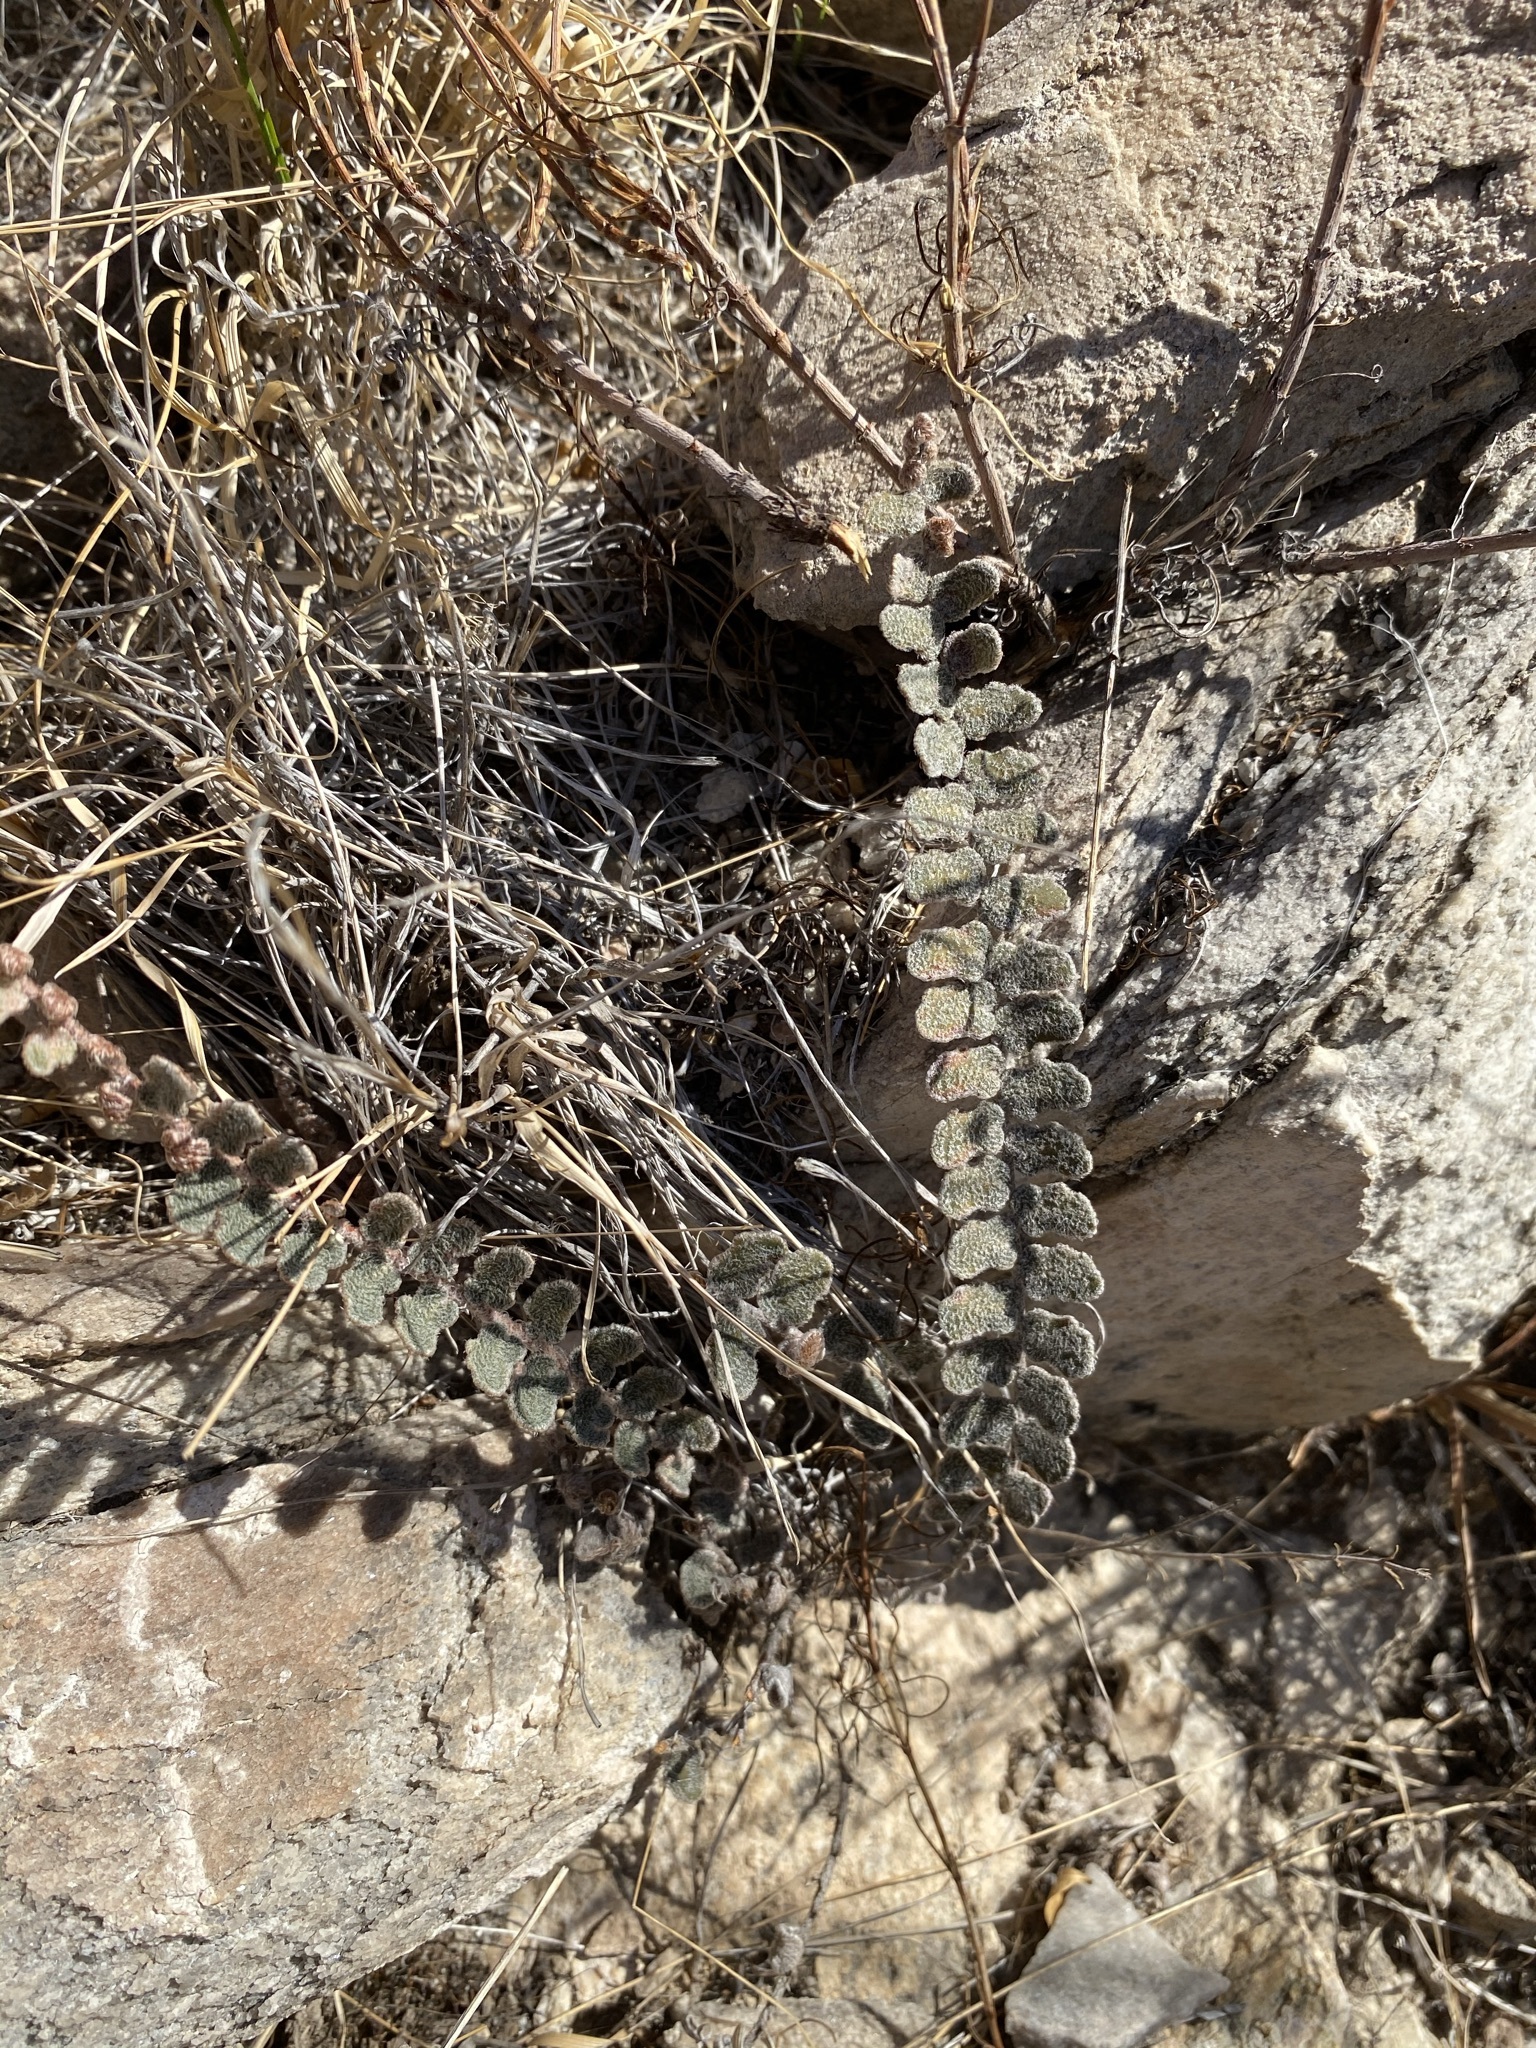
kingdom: Plantae
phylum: Tracheophyta
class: Polypodiopsida
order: Polypodiales
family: Pteridaceae
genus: Astrolepis
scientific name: Astrolepis integerrima
